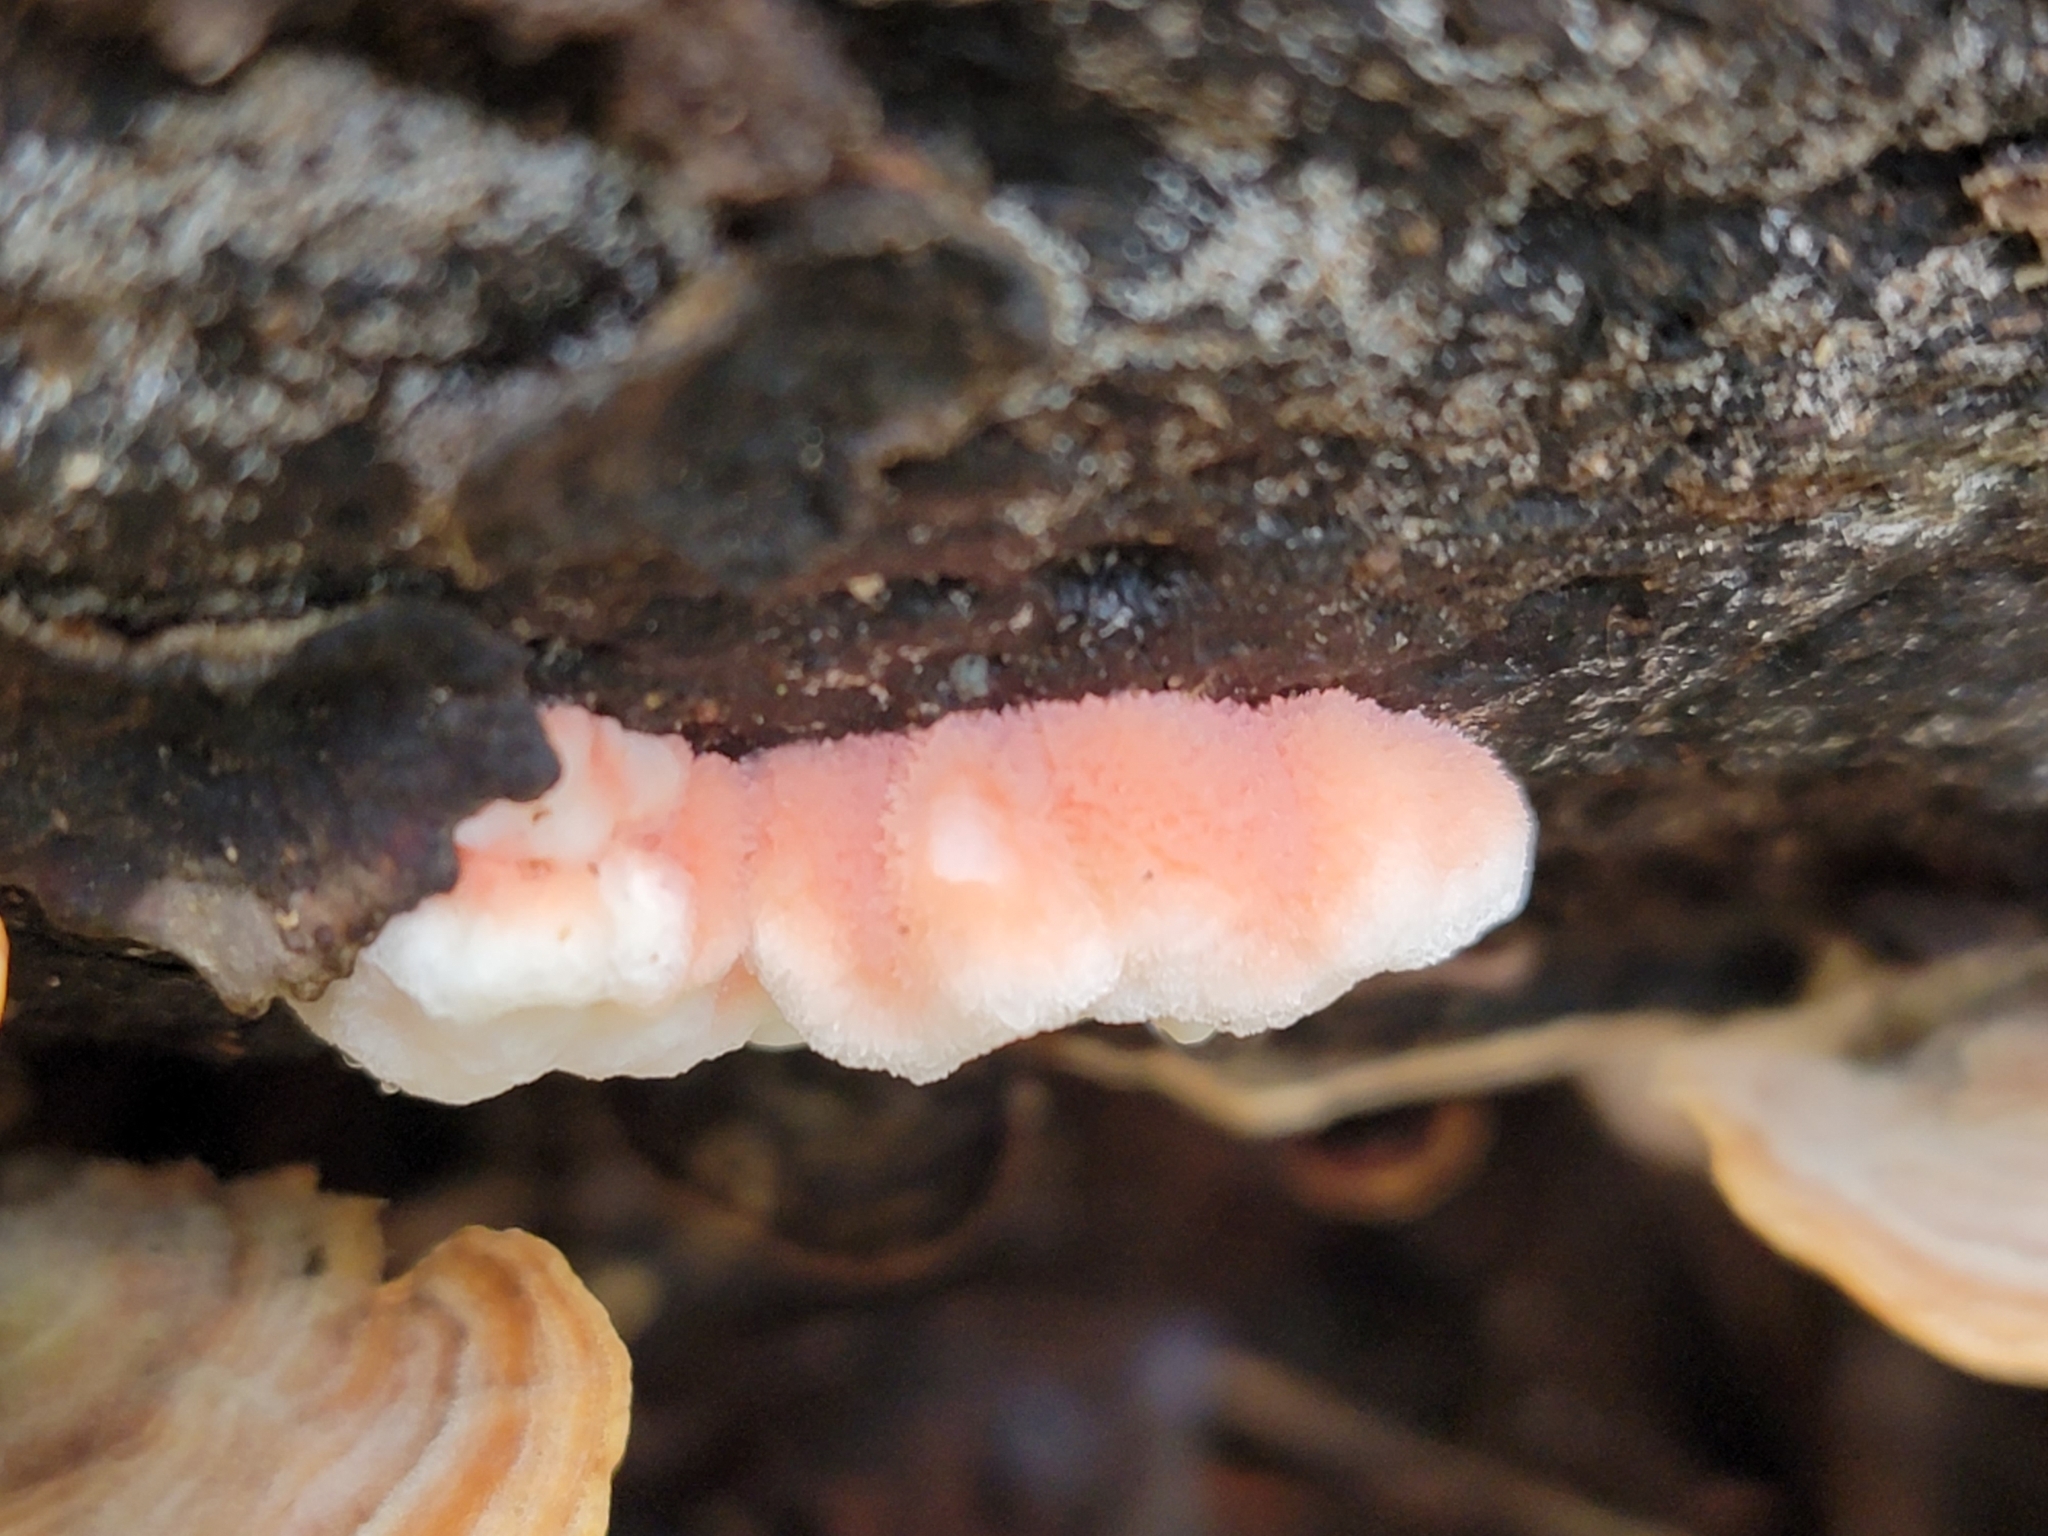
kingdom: Fungi
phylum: Basidiomycota
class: Agaricomycetes
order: Polyporales
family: Irpicaceae
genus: Byssomerulius
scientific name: Byssomerulius incarnatus
